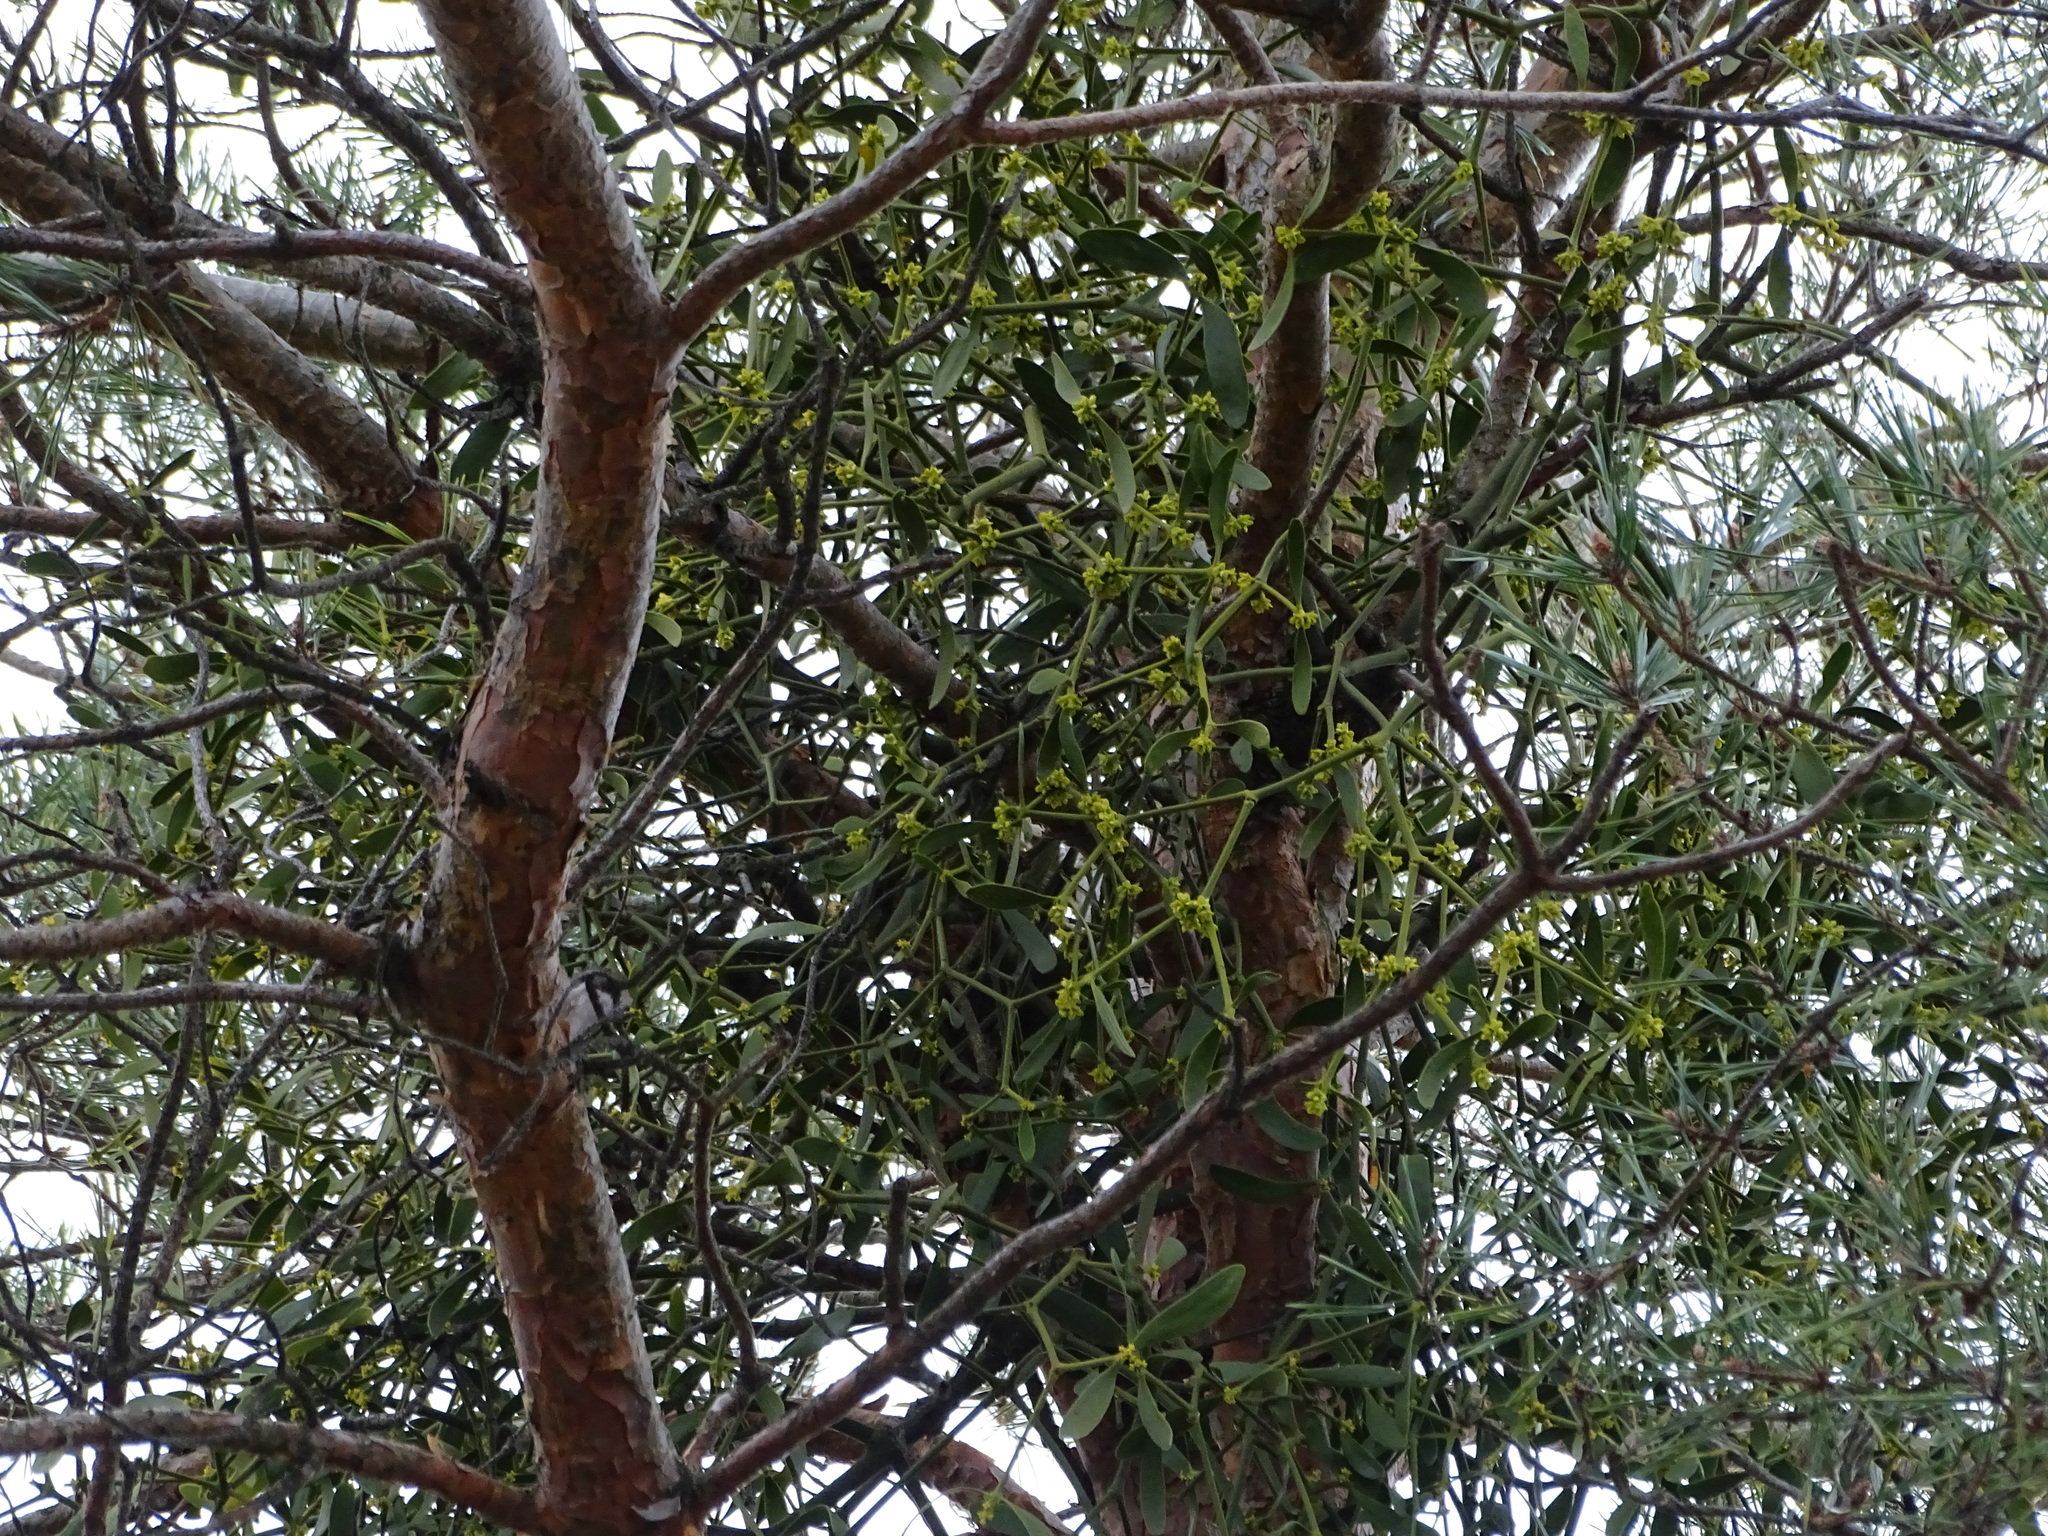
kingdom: Plantae
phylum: Tracheophyta
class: Magnoliopsida
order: Santalales
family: Viscaceae
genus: Viscum
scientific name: Viscum laxum
